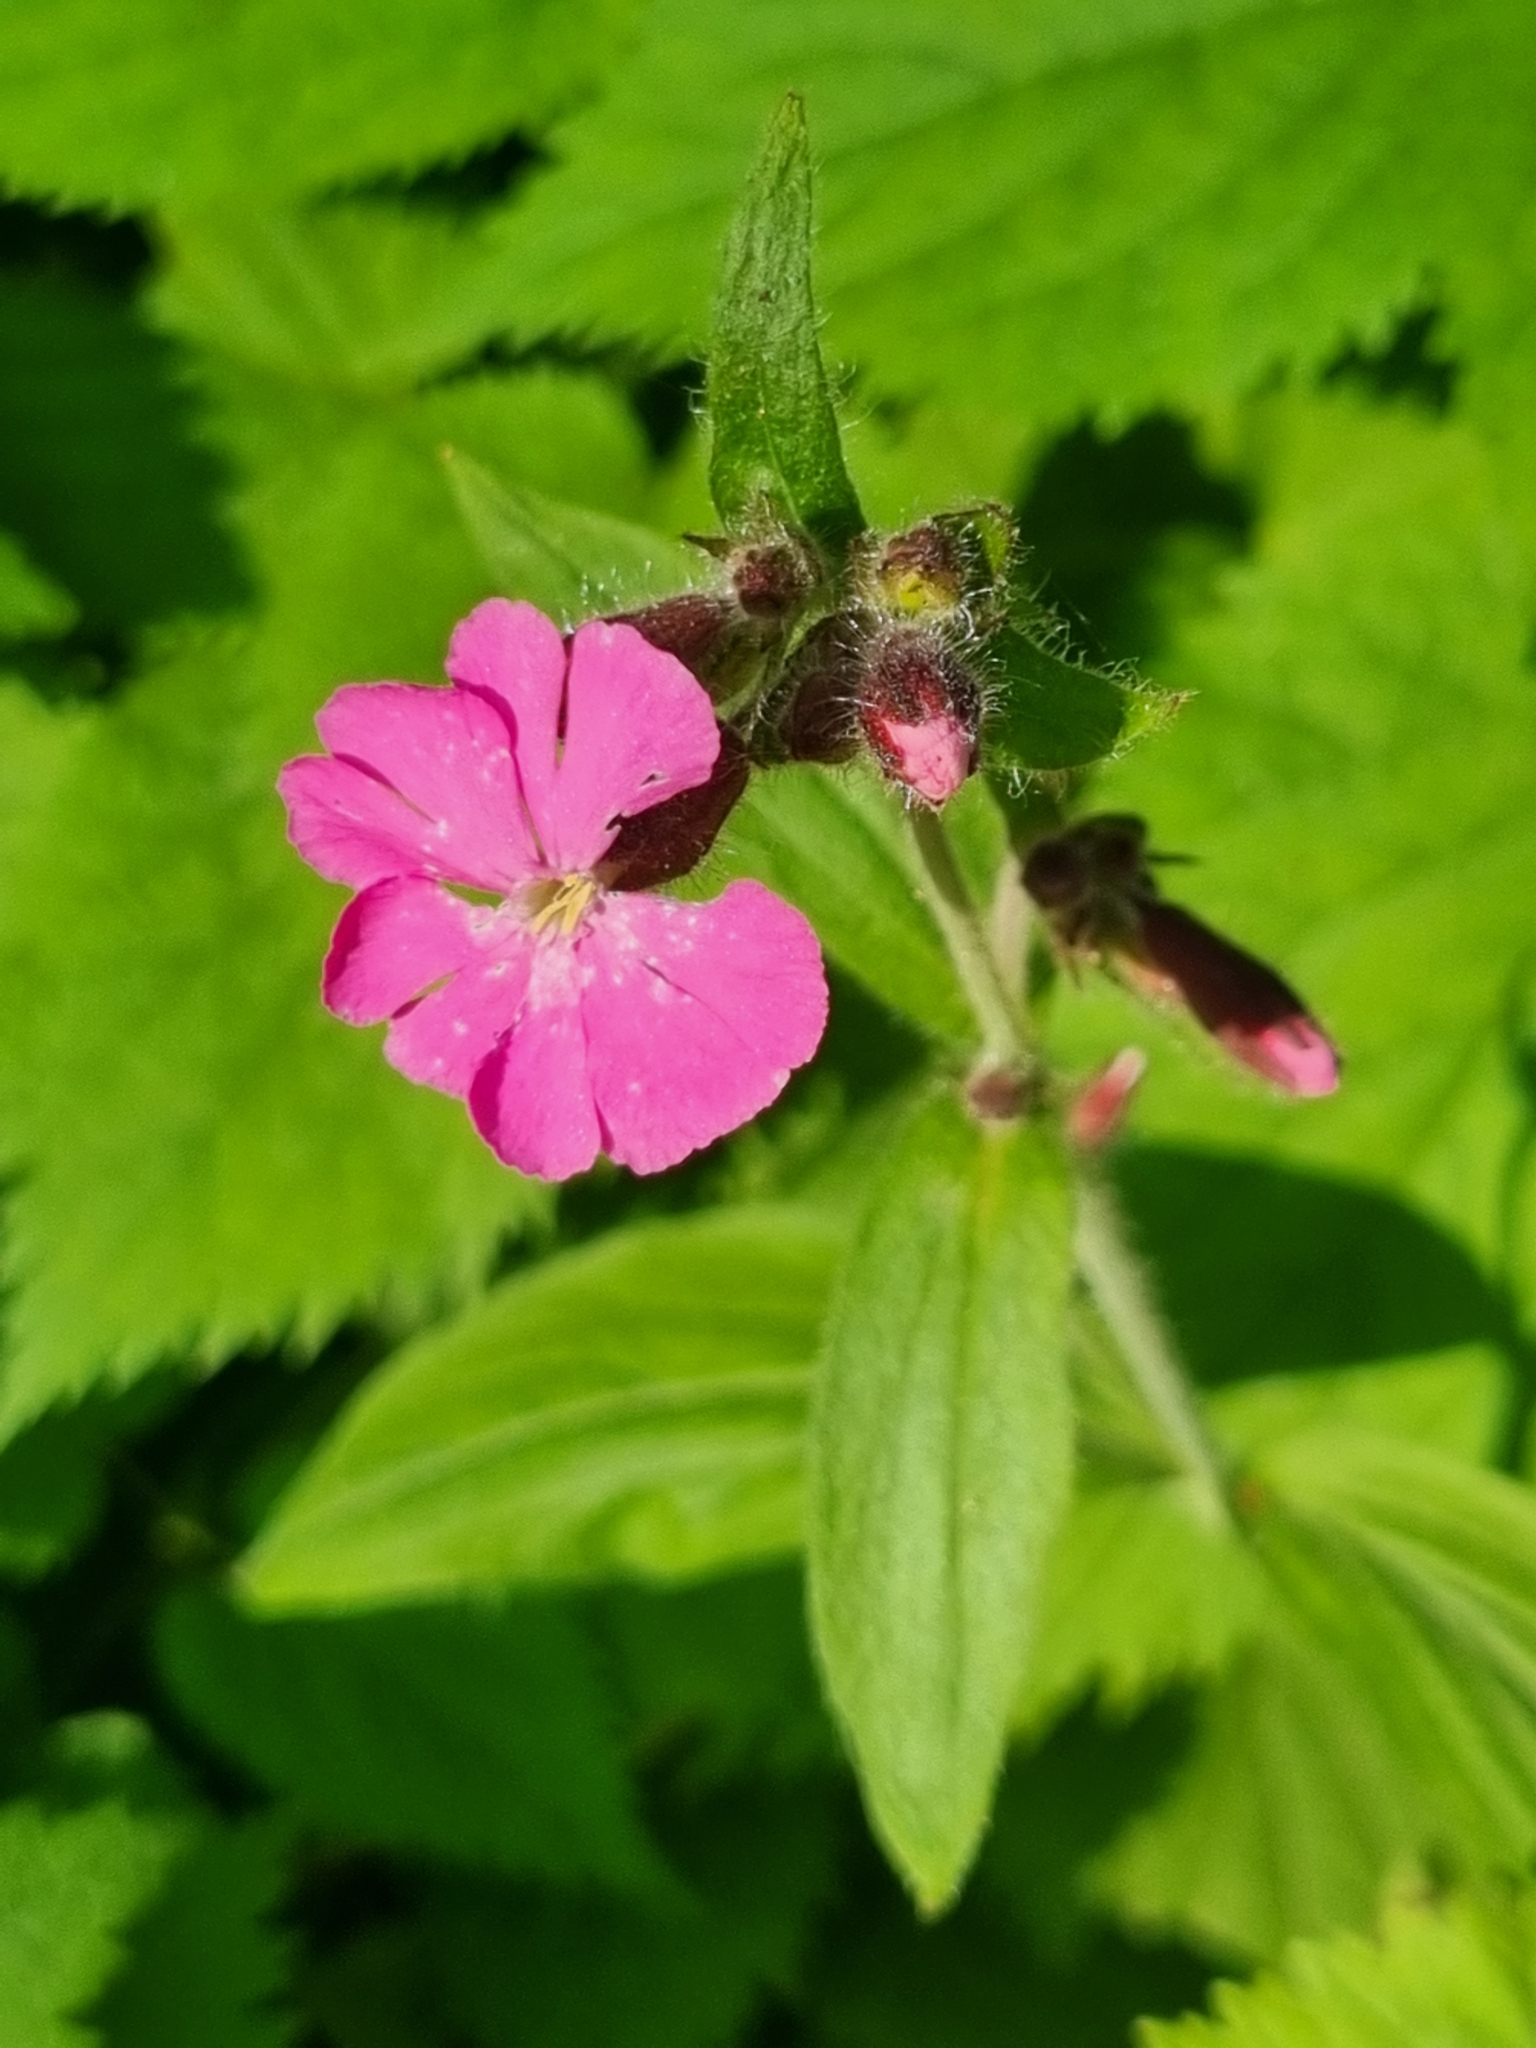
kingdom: Plantae
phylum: Tracheophyta
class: Magnoliopsida
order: Caryophyllales
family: Caryophyllaceae
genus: Silene
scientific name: Silene dioica
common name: Red campion
